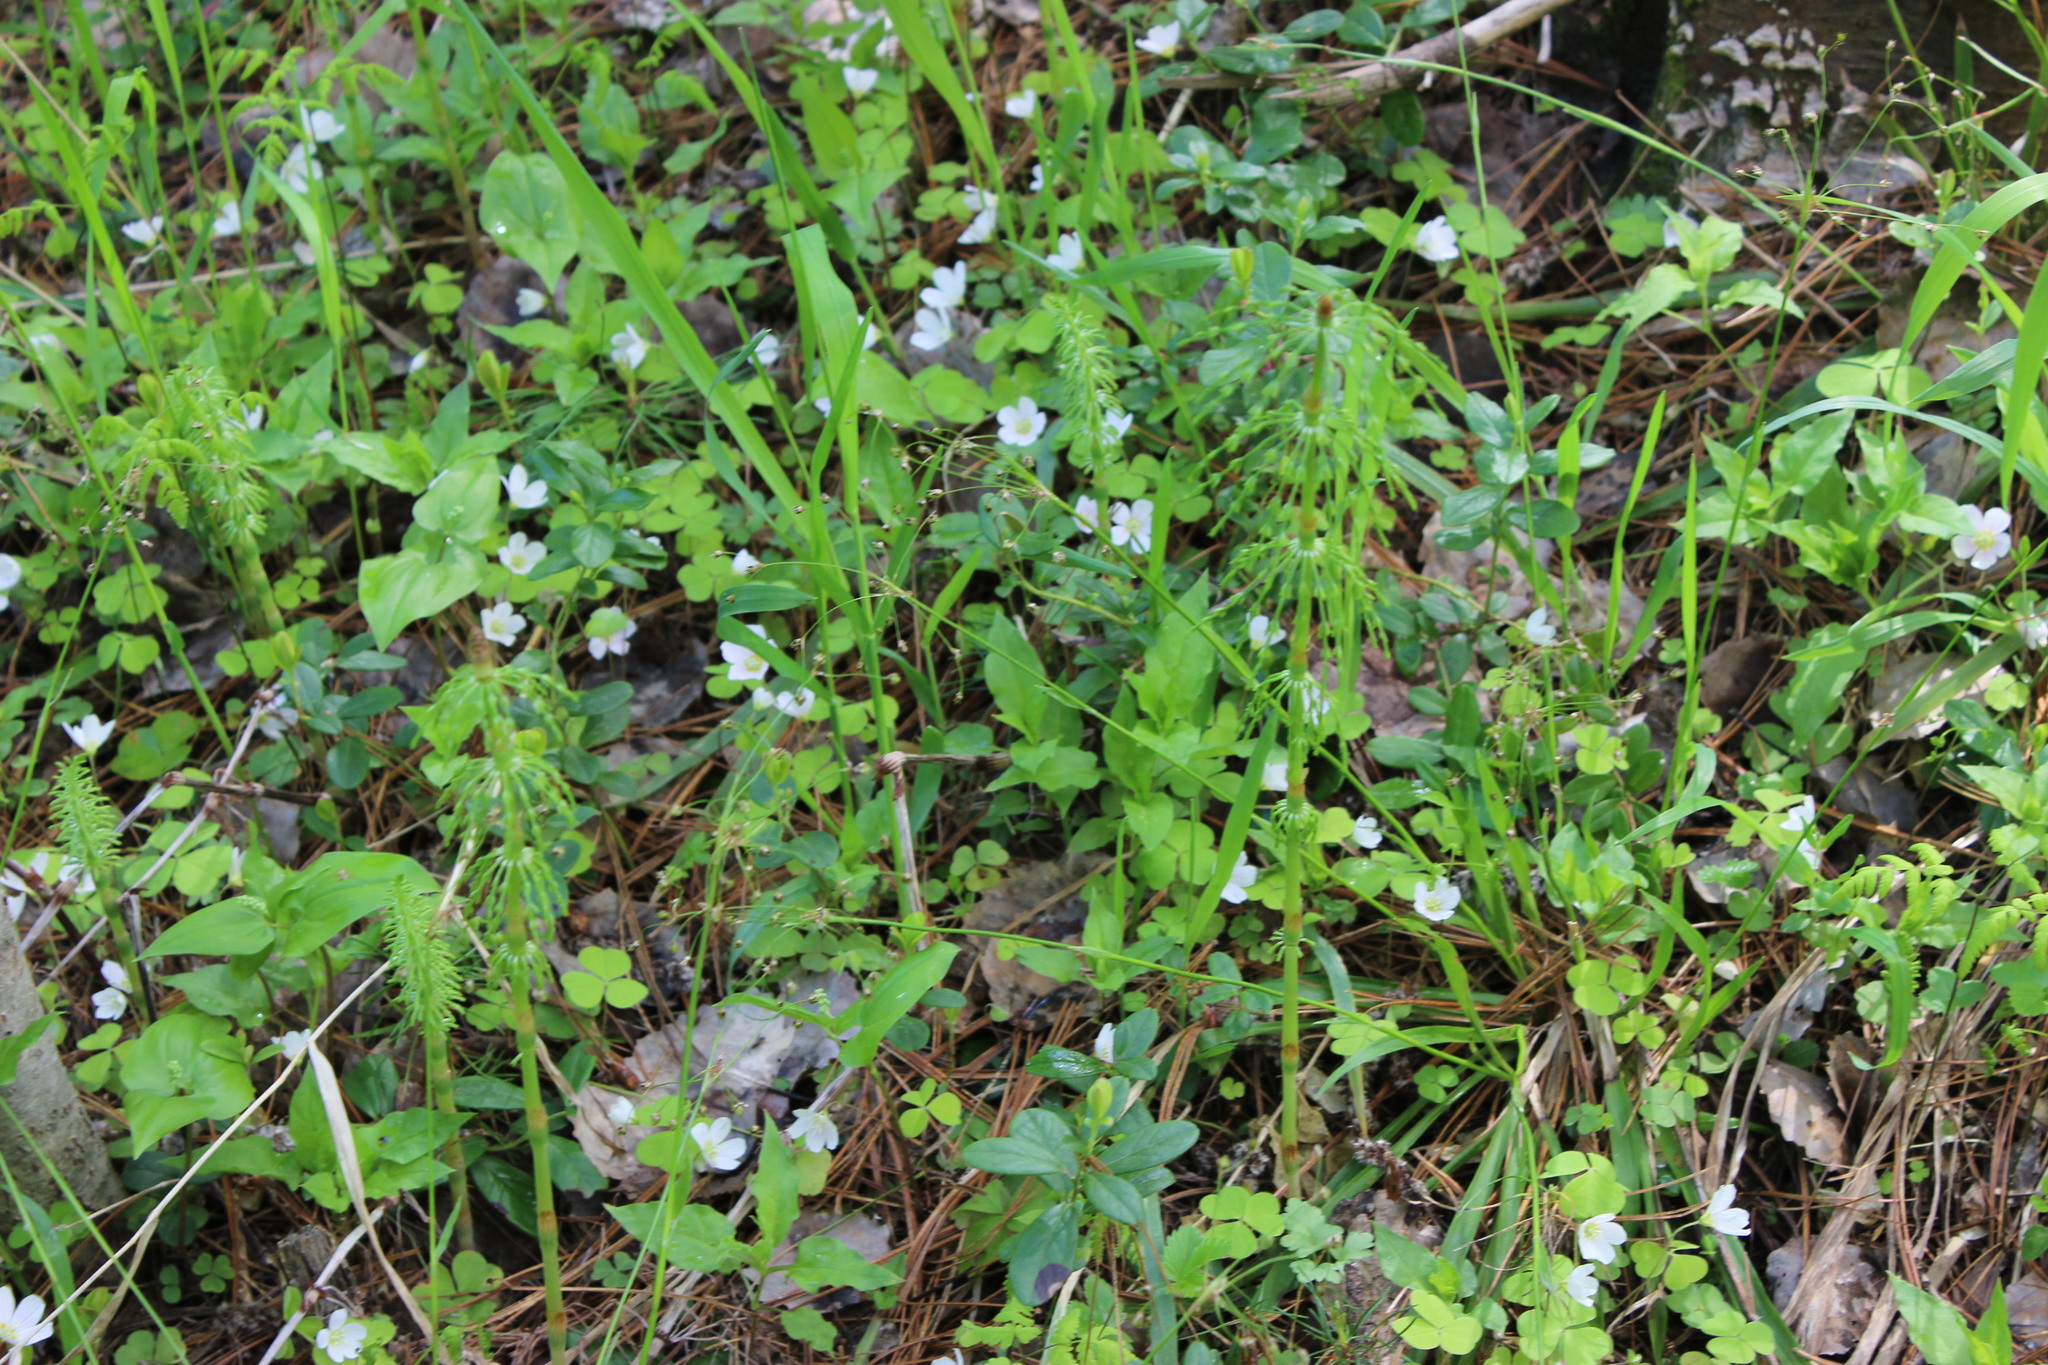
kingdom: Plantae
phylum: Tracheophyta
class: Polypodiopsida
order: Equisetales
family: Equisetaceae
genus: Equisetum
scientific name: Equisetum sylvaticum
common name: Wood horsetail
